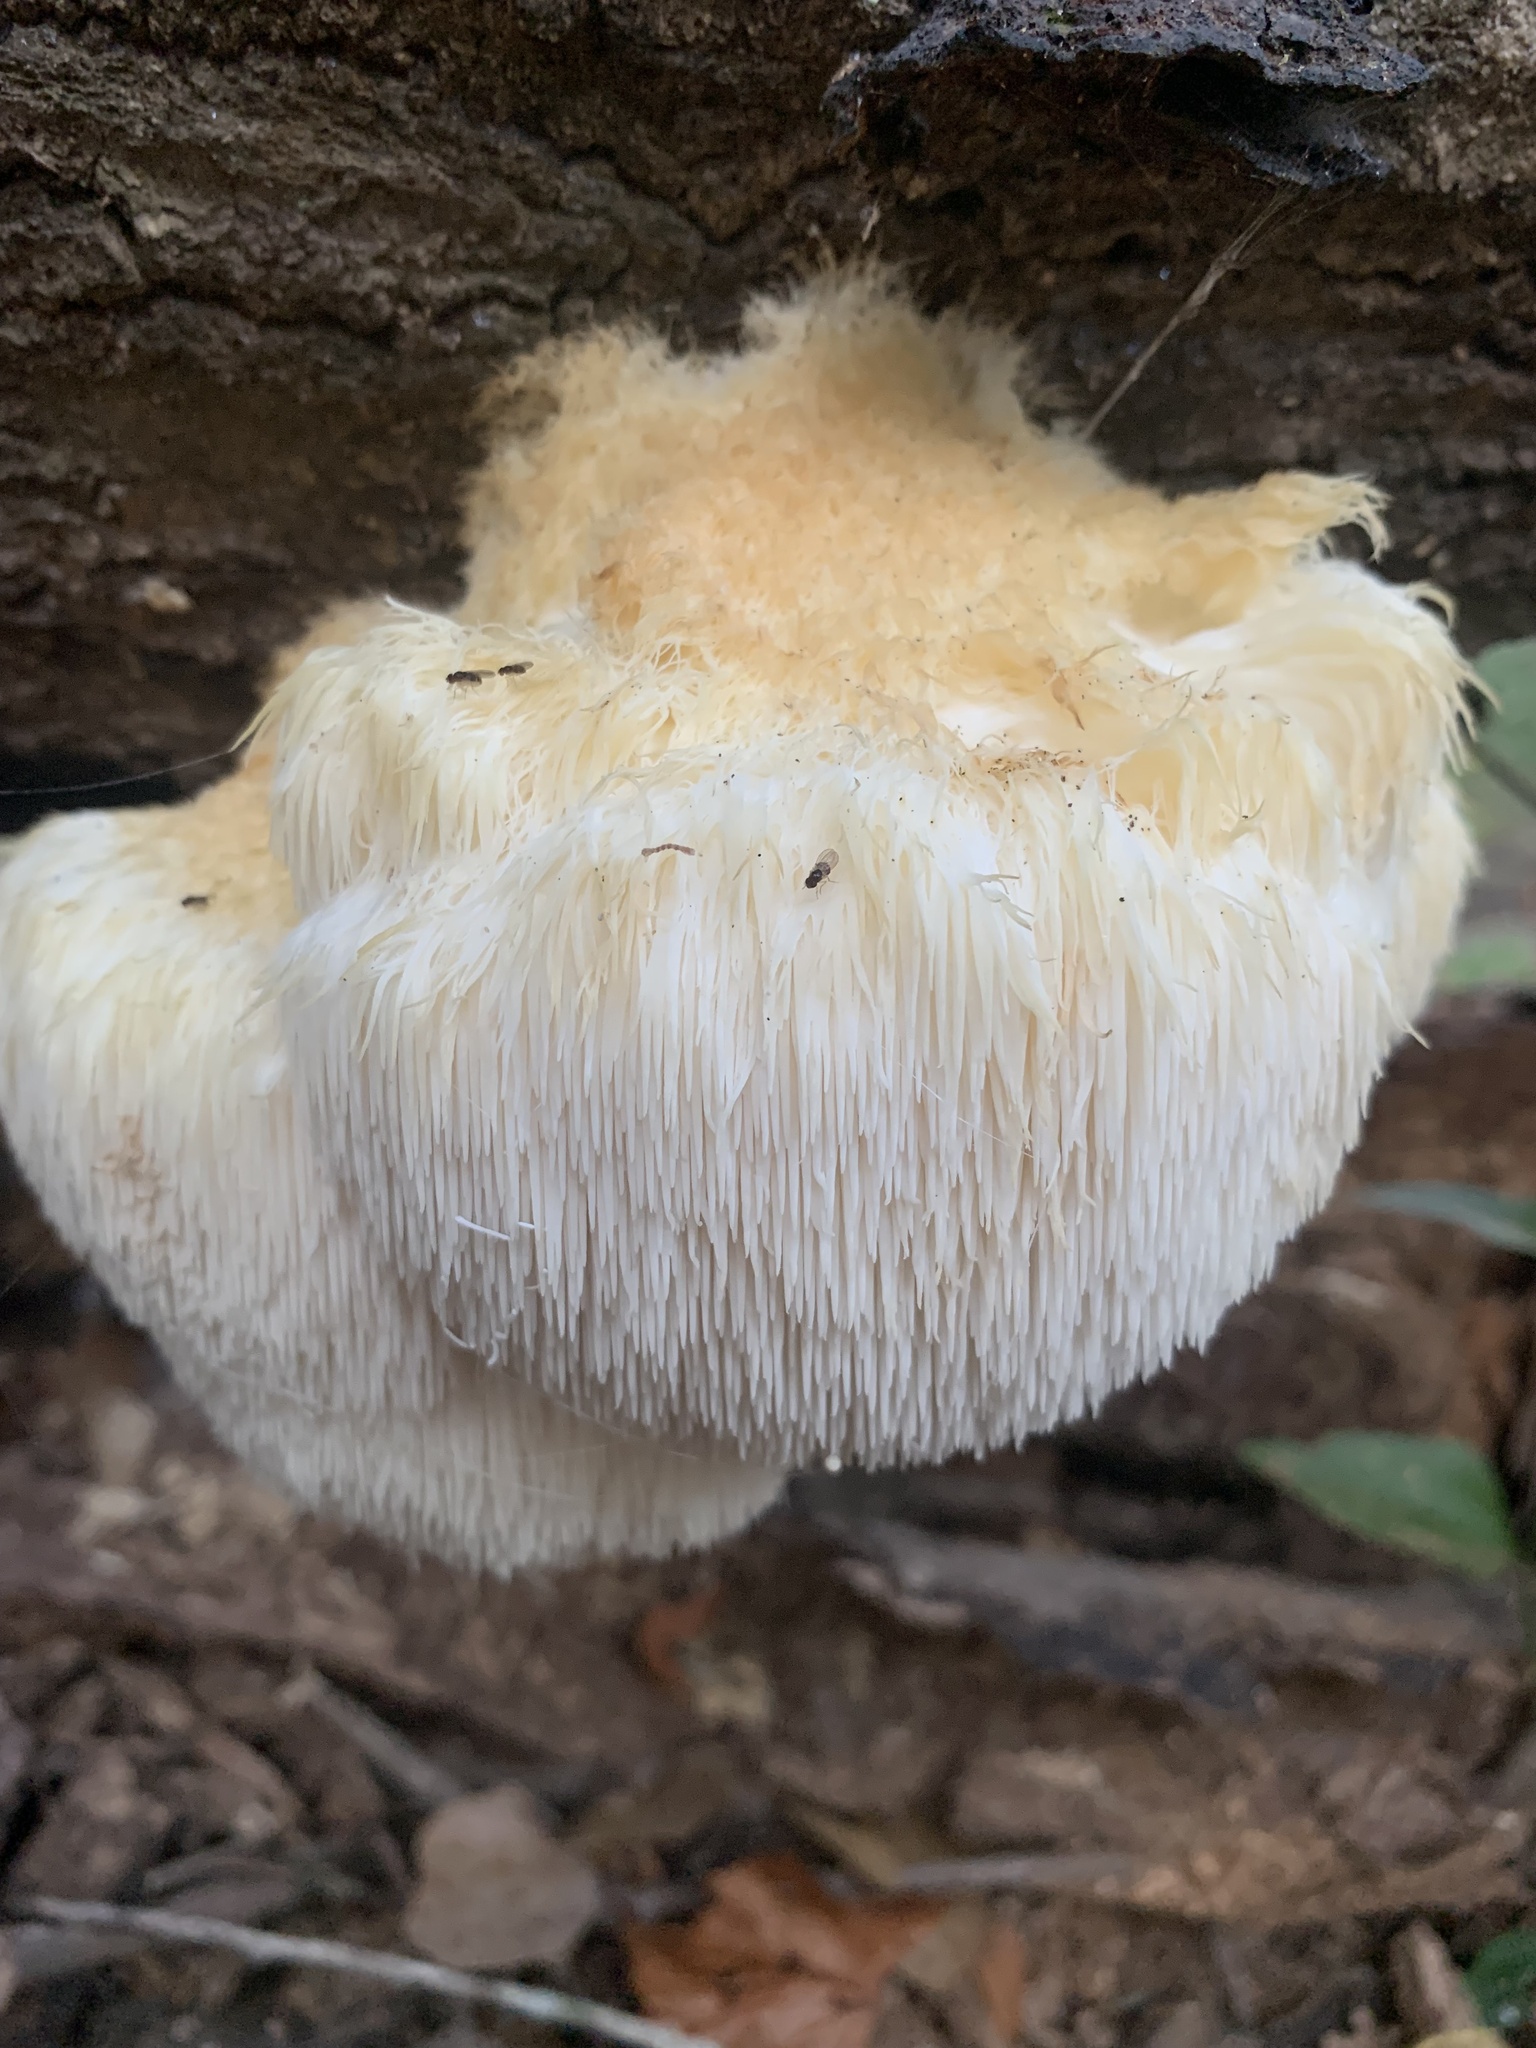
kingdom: Fungi
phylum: Basidiomycota
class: Agaricomycetes
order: Russulales
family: Hericiaceae
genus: Hericium
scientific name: Hericium erinaceus
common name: Bearded tooth
